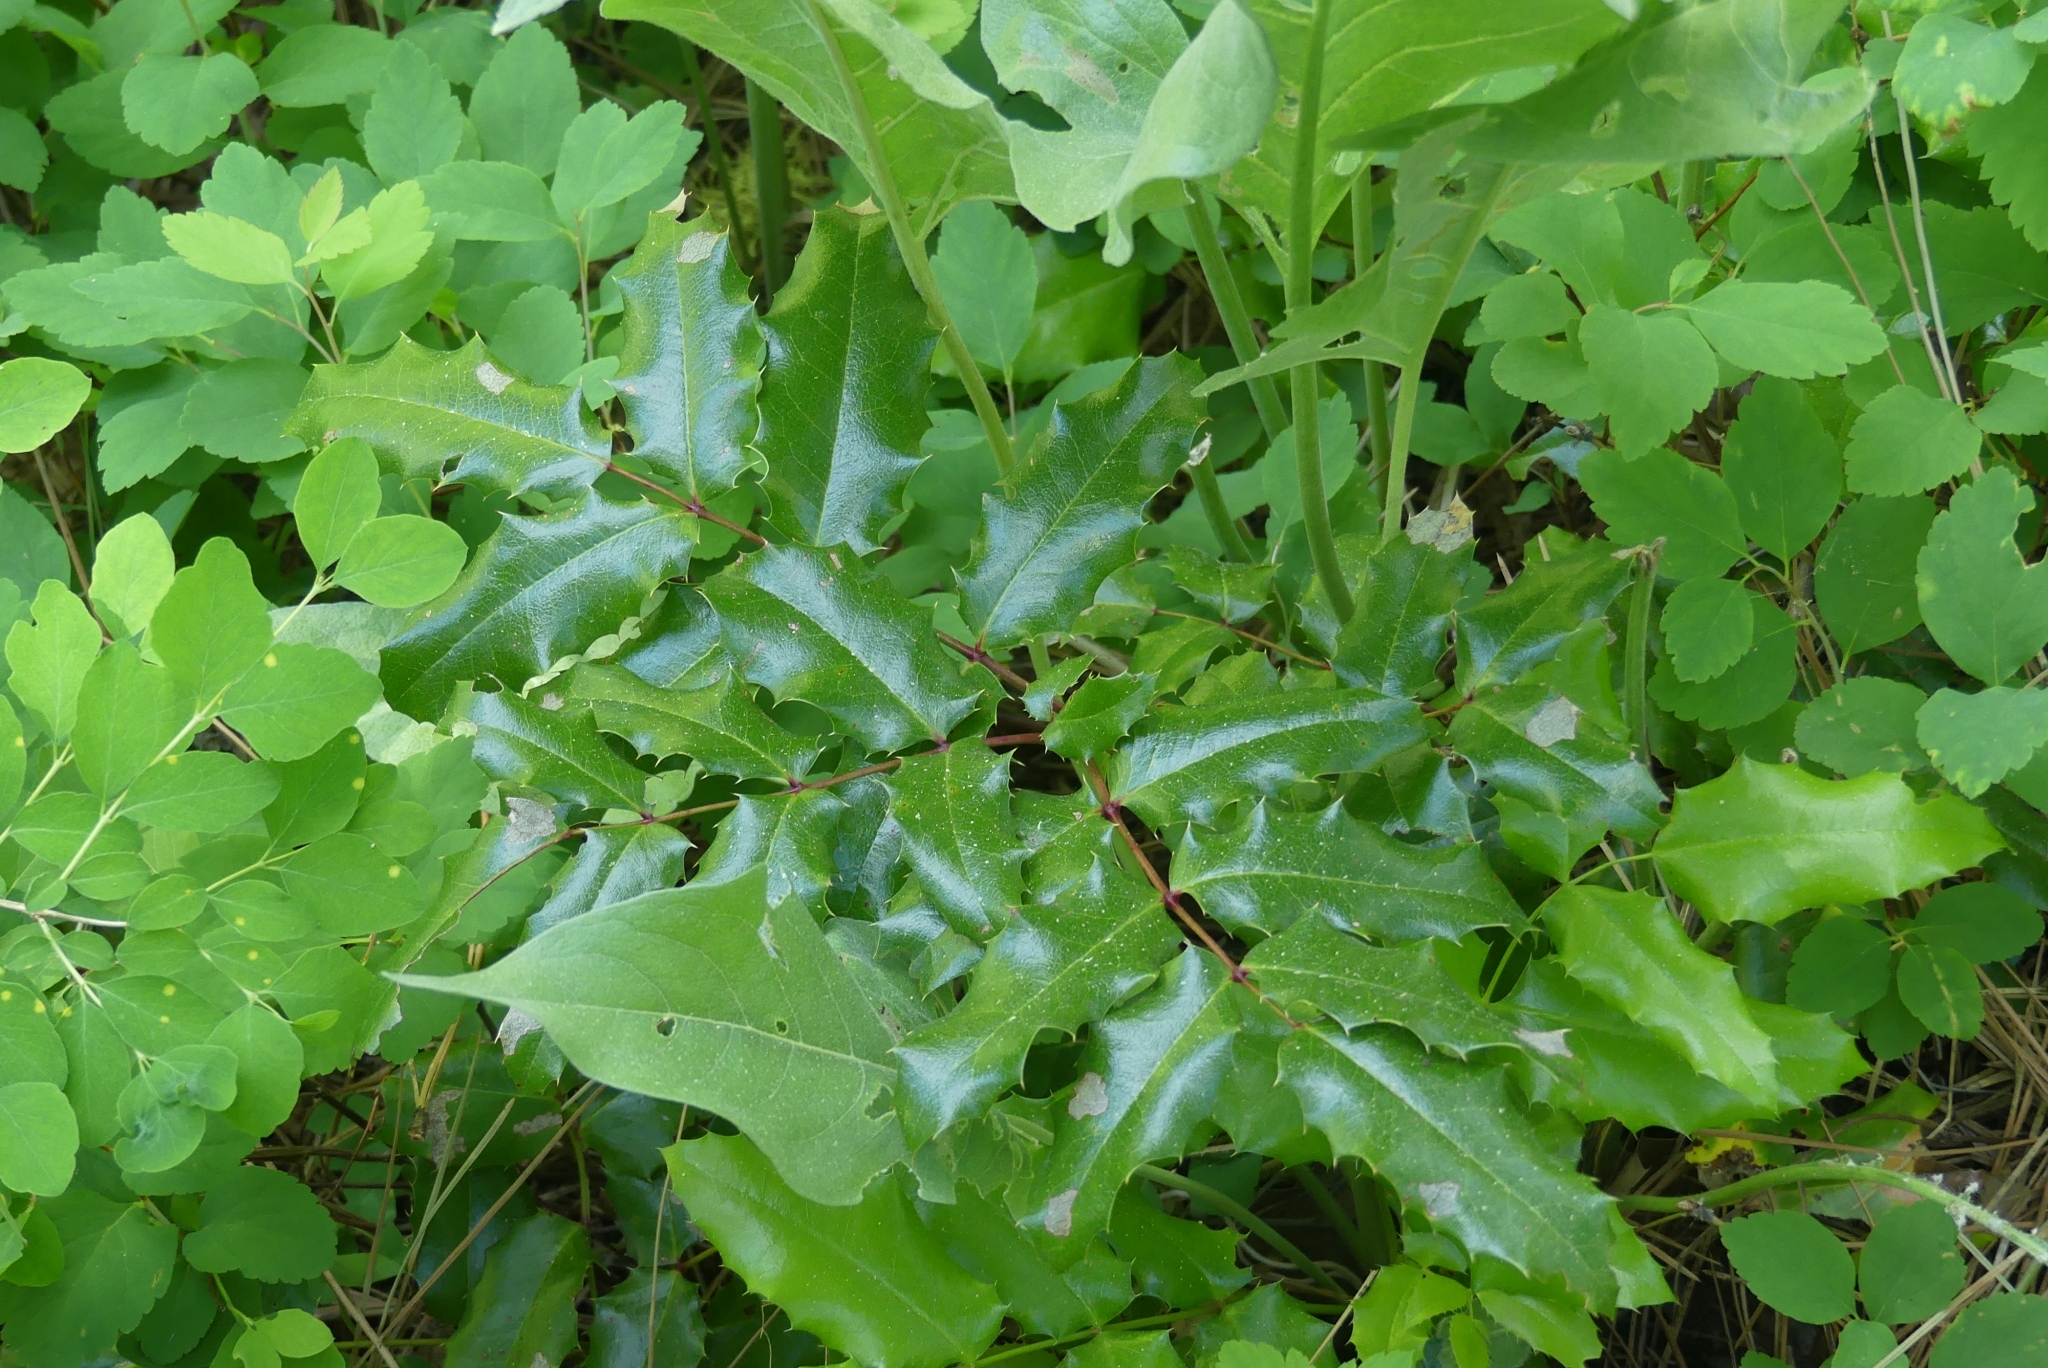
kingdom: Plantae
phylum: Tracheophyta
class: Magnoliopsida
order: Ranunculales
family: Berberidaceae
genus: Mahonia
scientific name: Mahonia aquifolium
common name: Oregon-grape
